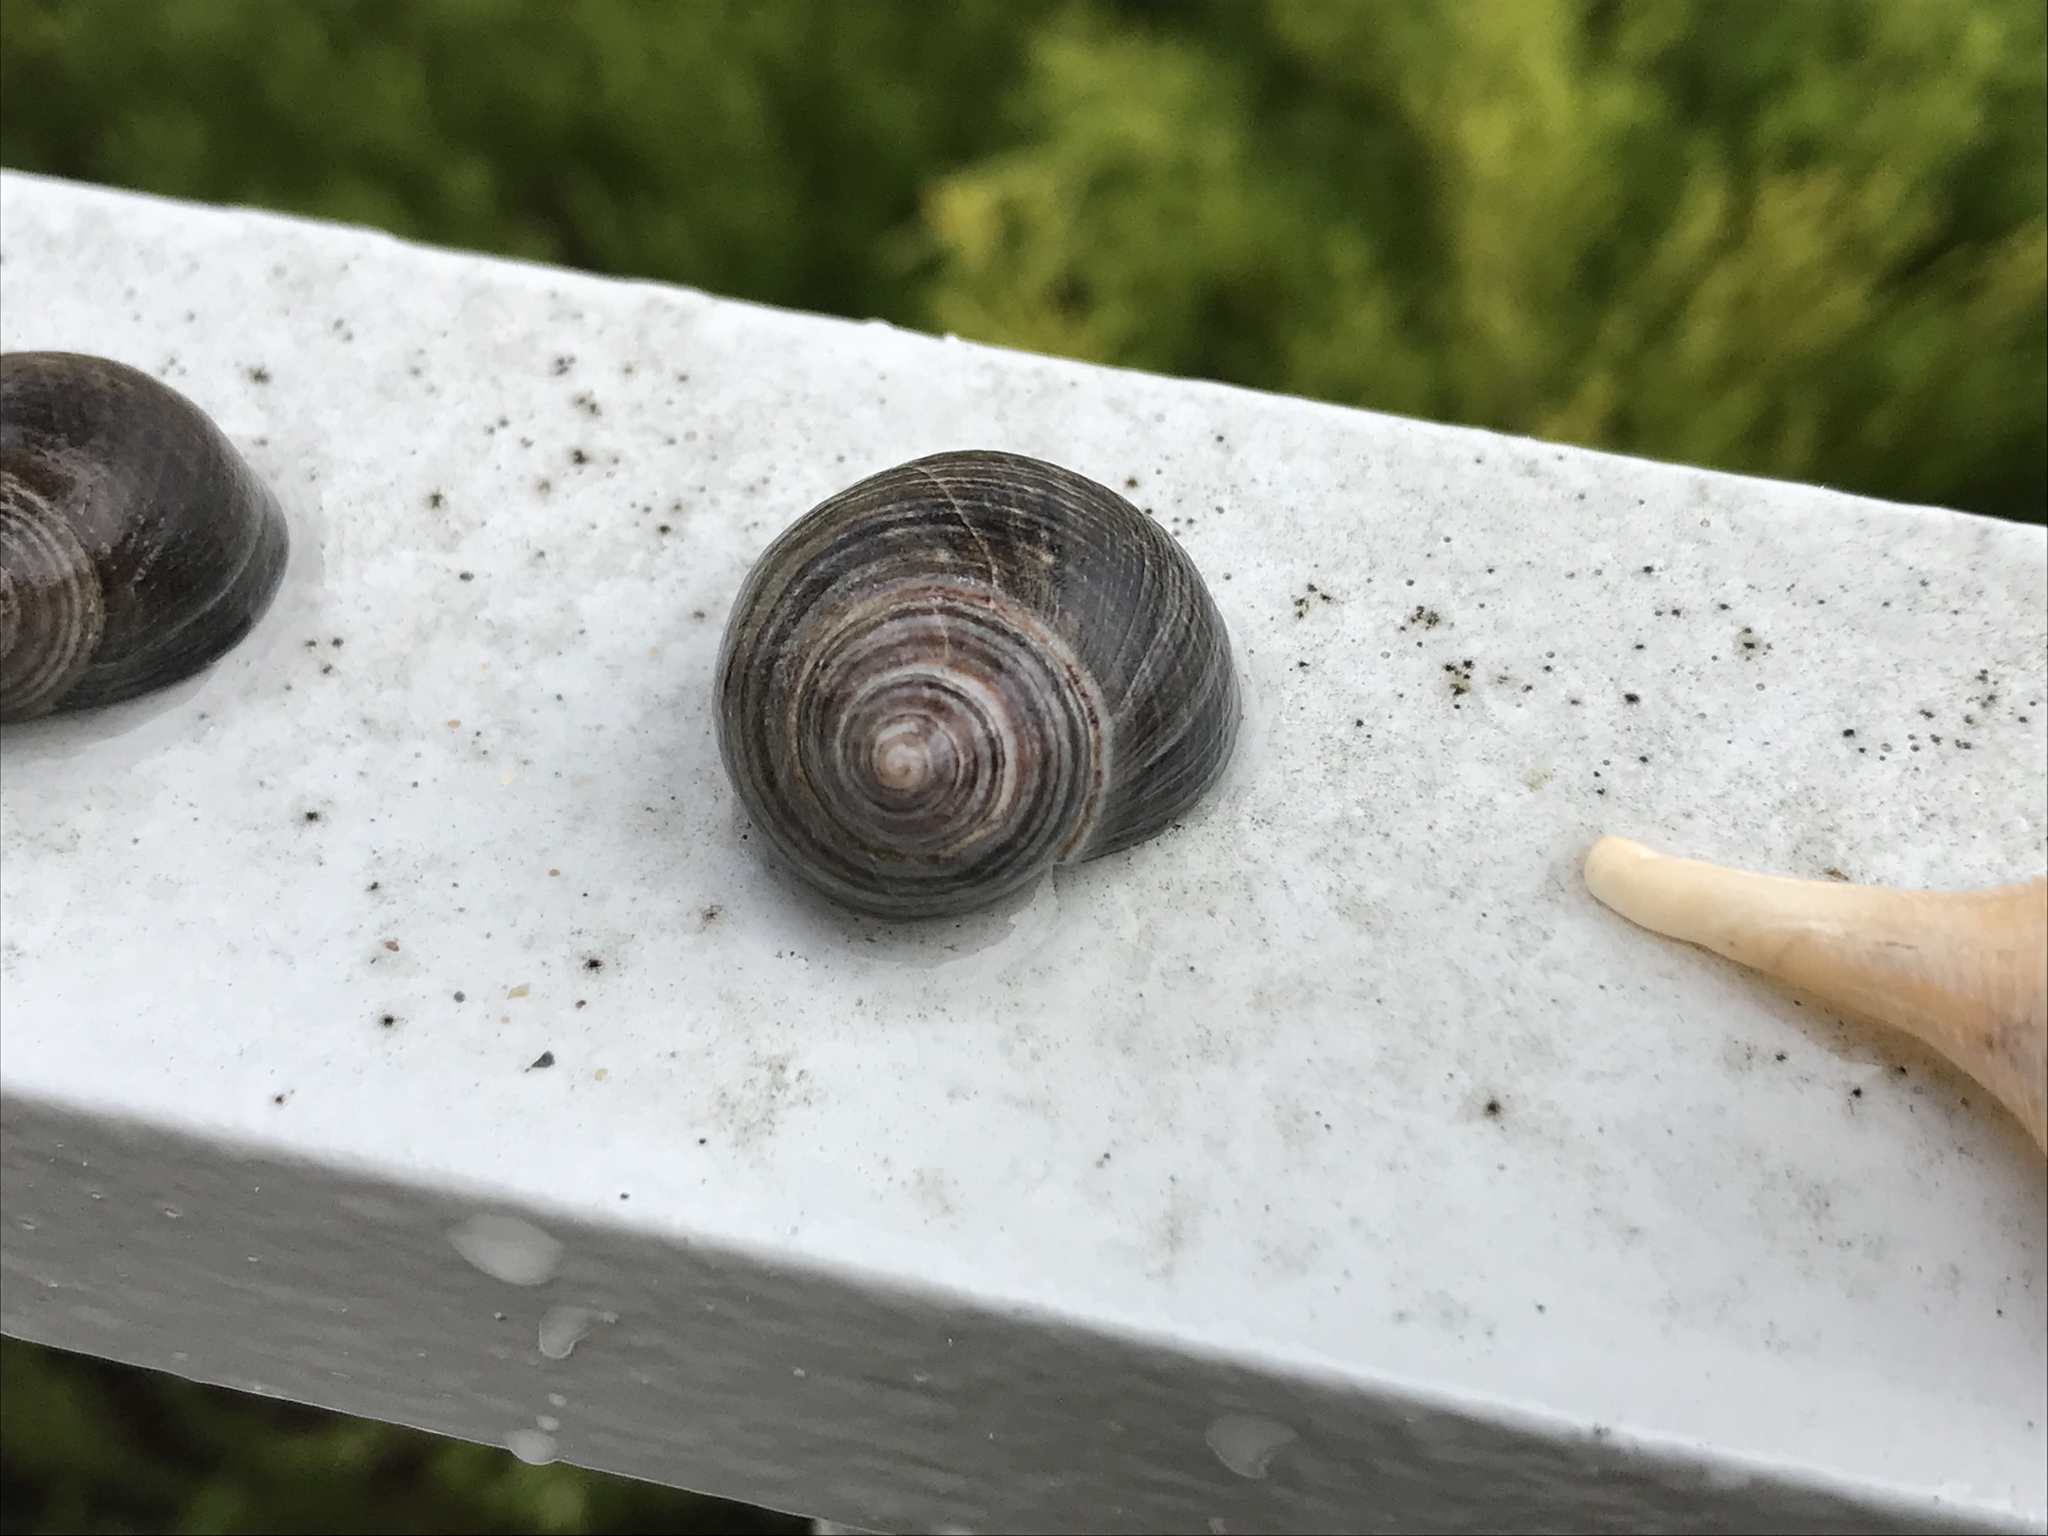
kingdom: Animalia
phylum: Mollusca
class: Gastropoda
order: Littorinimorpha
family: Littorinidae
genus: Littorina
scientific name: Littorina littorea
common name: Common periwinkle
